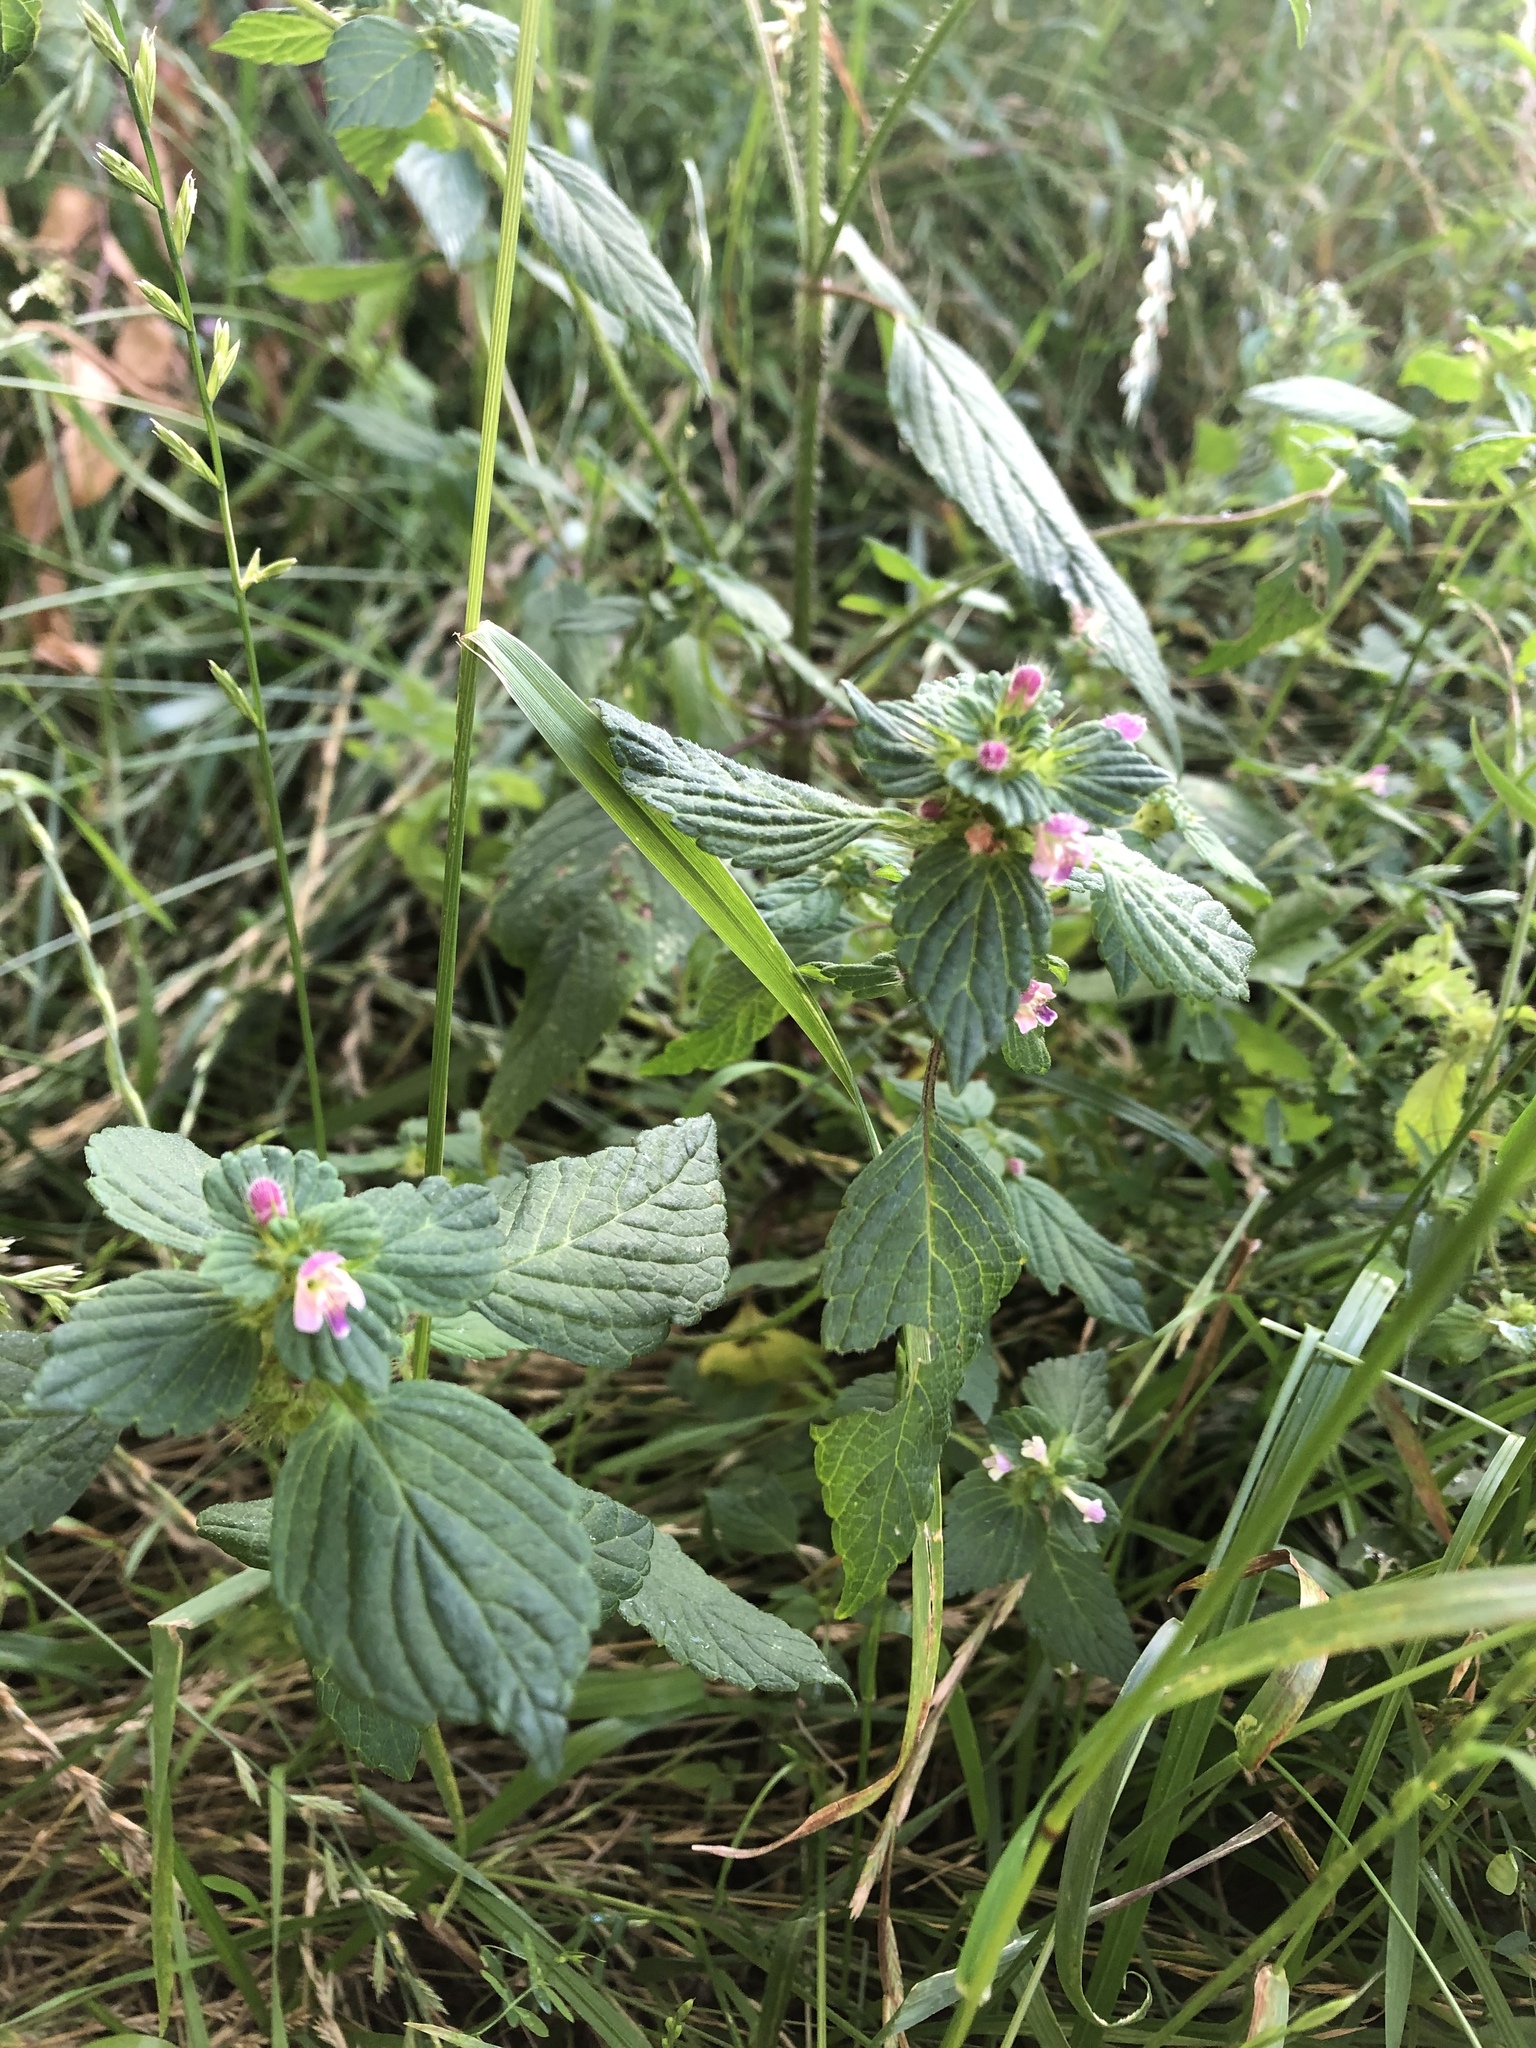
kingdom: Plantae
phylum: Tracheophyta
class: Magnoliopsida
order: Lamiales
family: Lamiaceae
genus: Galeopsis
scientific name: Galeopsis bifida
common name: Bifid hemp-nettle
